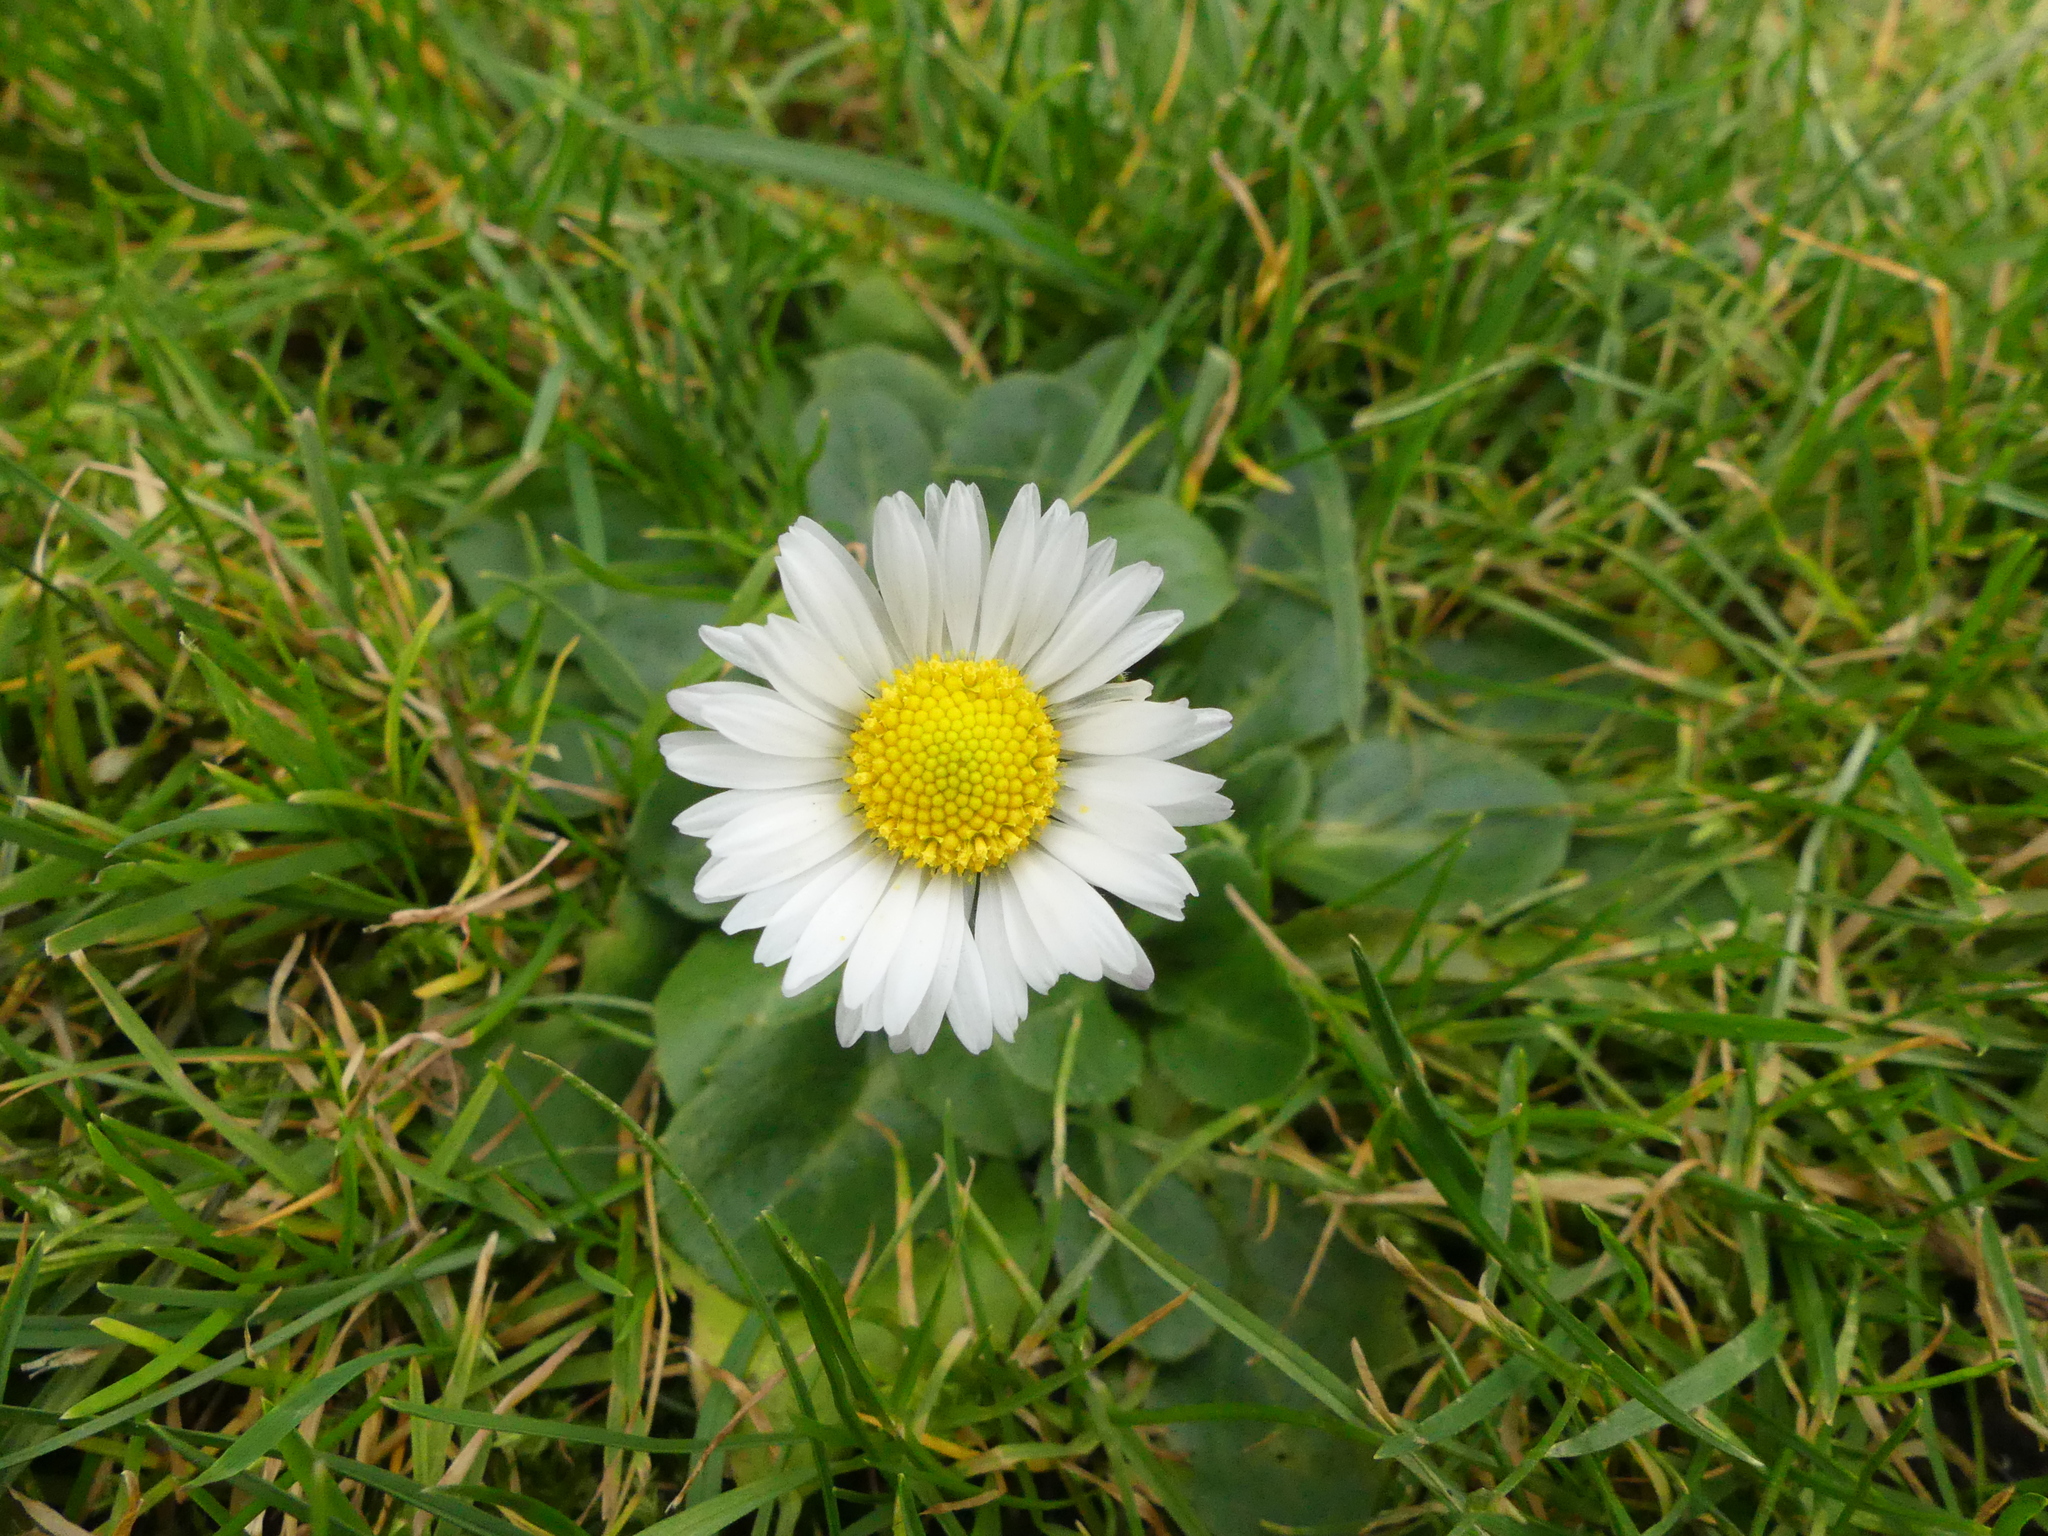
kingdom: Plantae
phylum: Tracheophyta
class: Magnoliopsida
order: Asterales
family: Asteraceae
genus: Bellis
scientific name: Bellis perennis
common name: Lawndaisy
